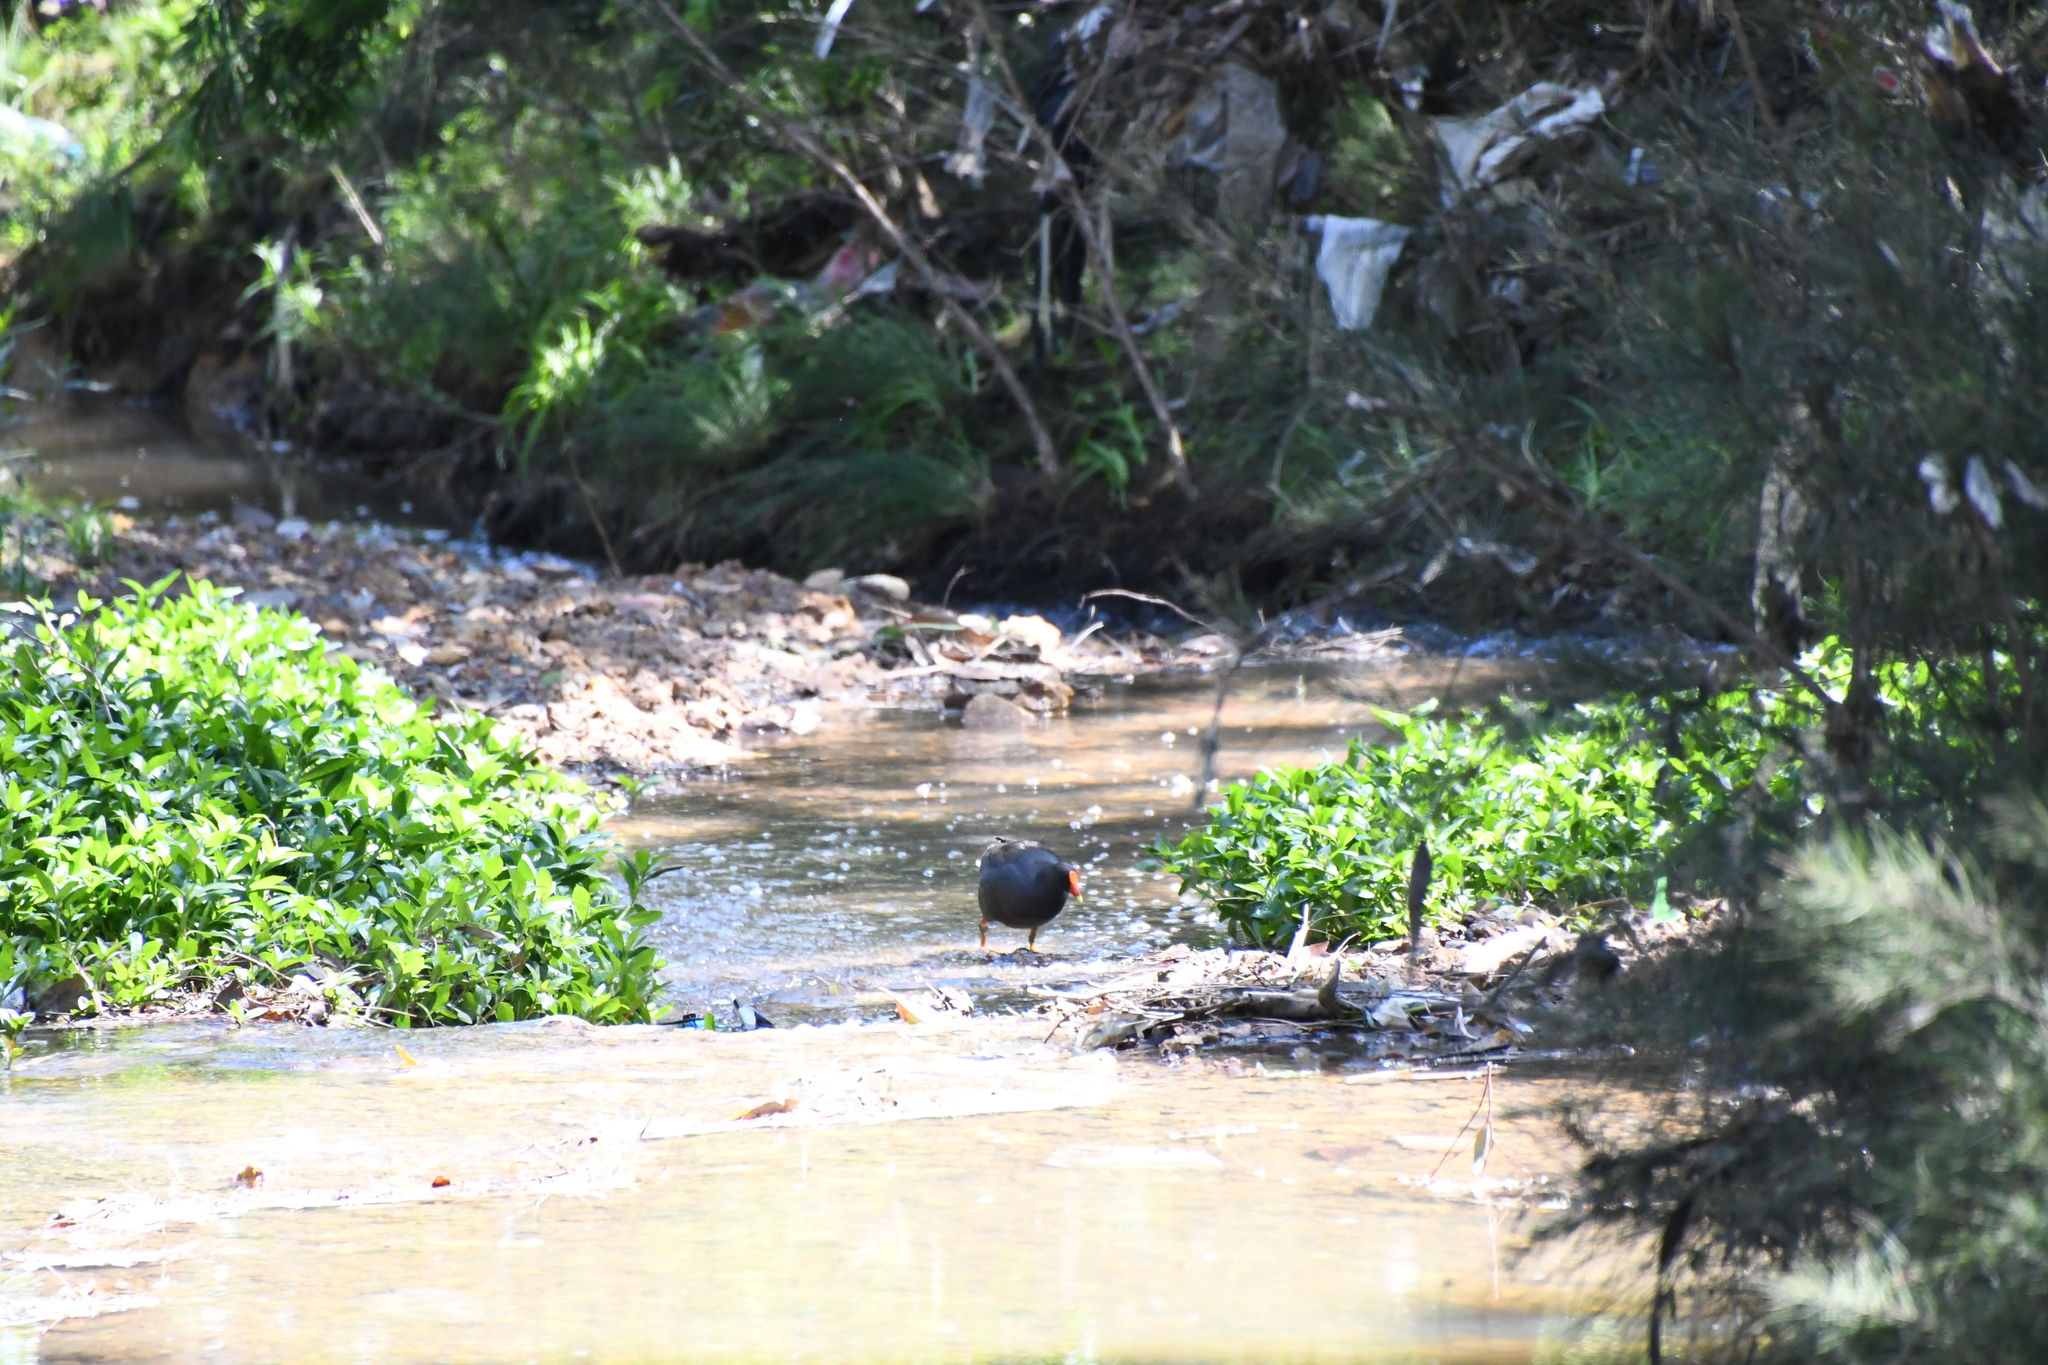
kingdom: Animalia
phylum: Chordata
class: Aves
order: Gruiformes
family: Rallidae
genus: Gallinula
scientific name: Gallinula tenebrosa
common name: Dusky moorhen
